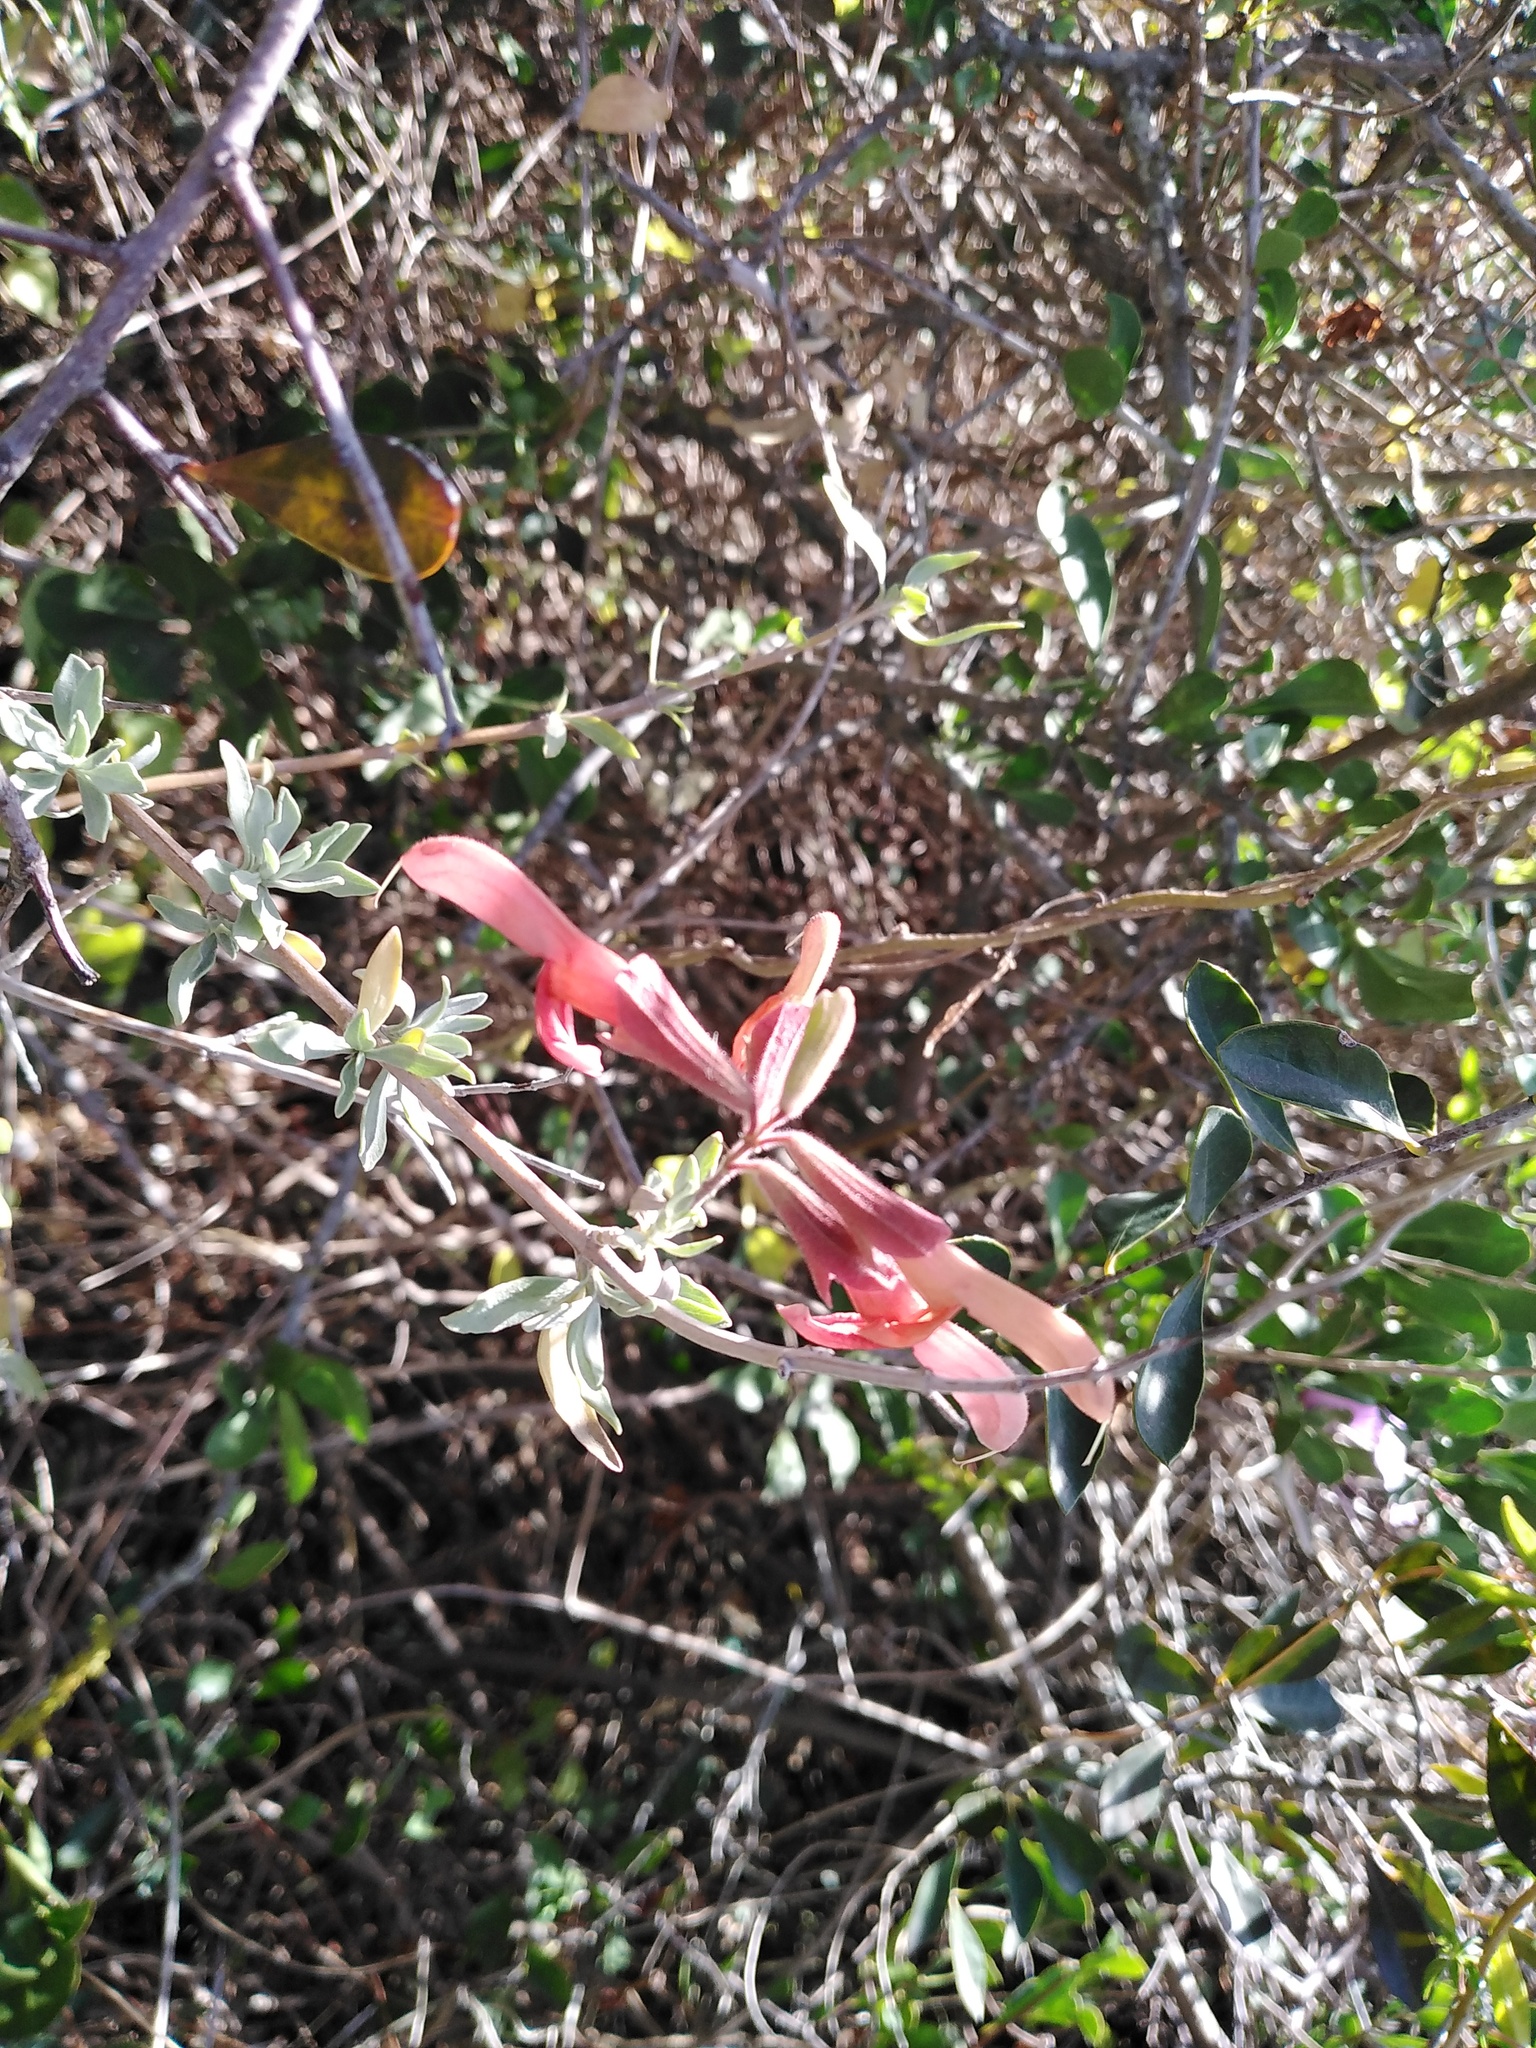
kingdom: Plantae
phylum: Tracheophyta
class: Magnoliopsida
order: Lamiales
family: Lamiaceae
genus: Salvia
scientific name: Salvia lanceolata
